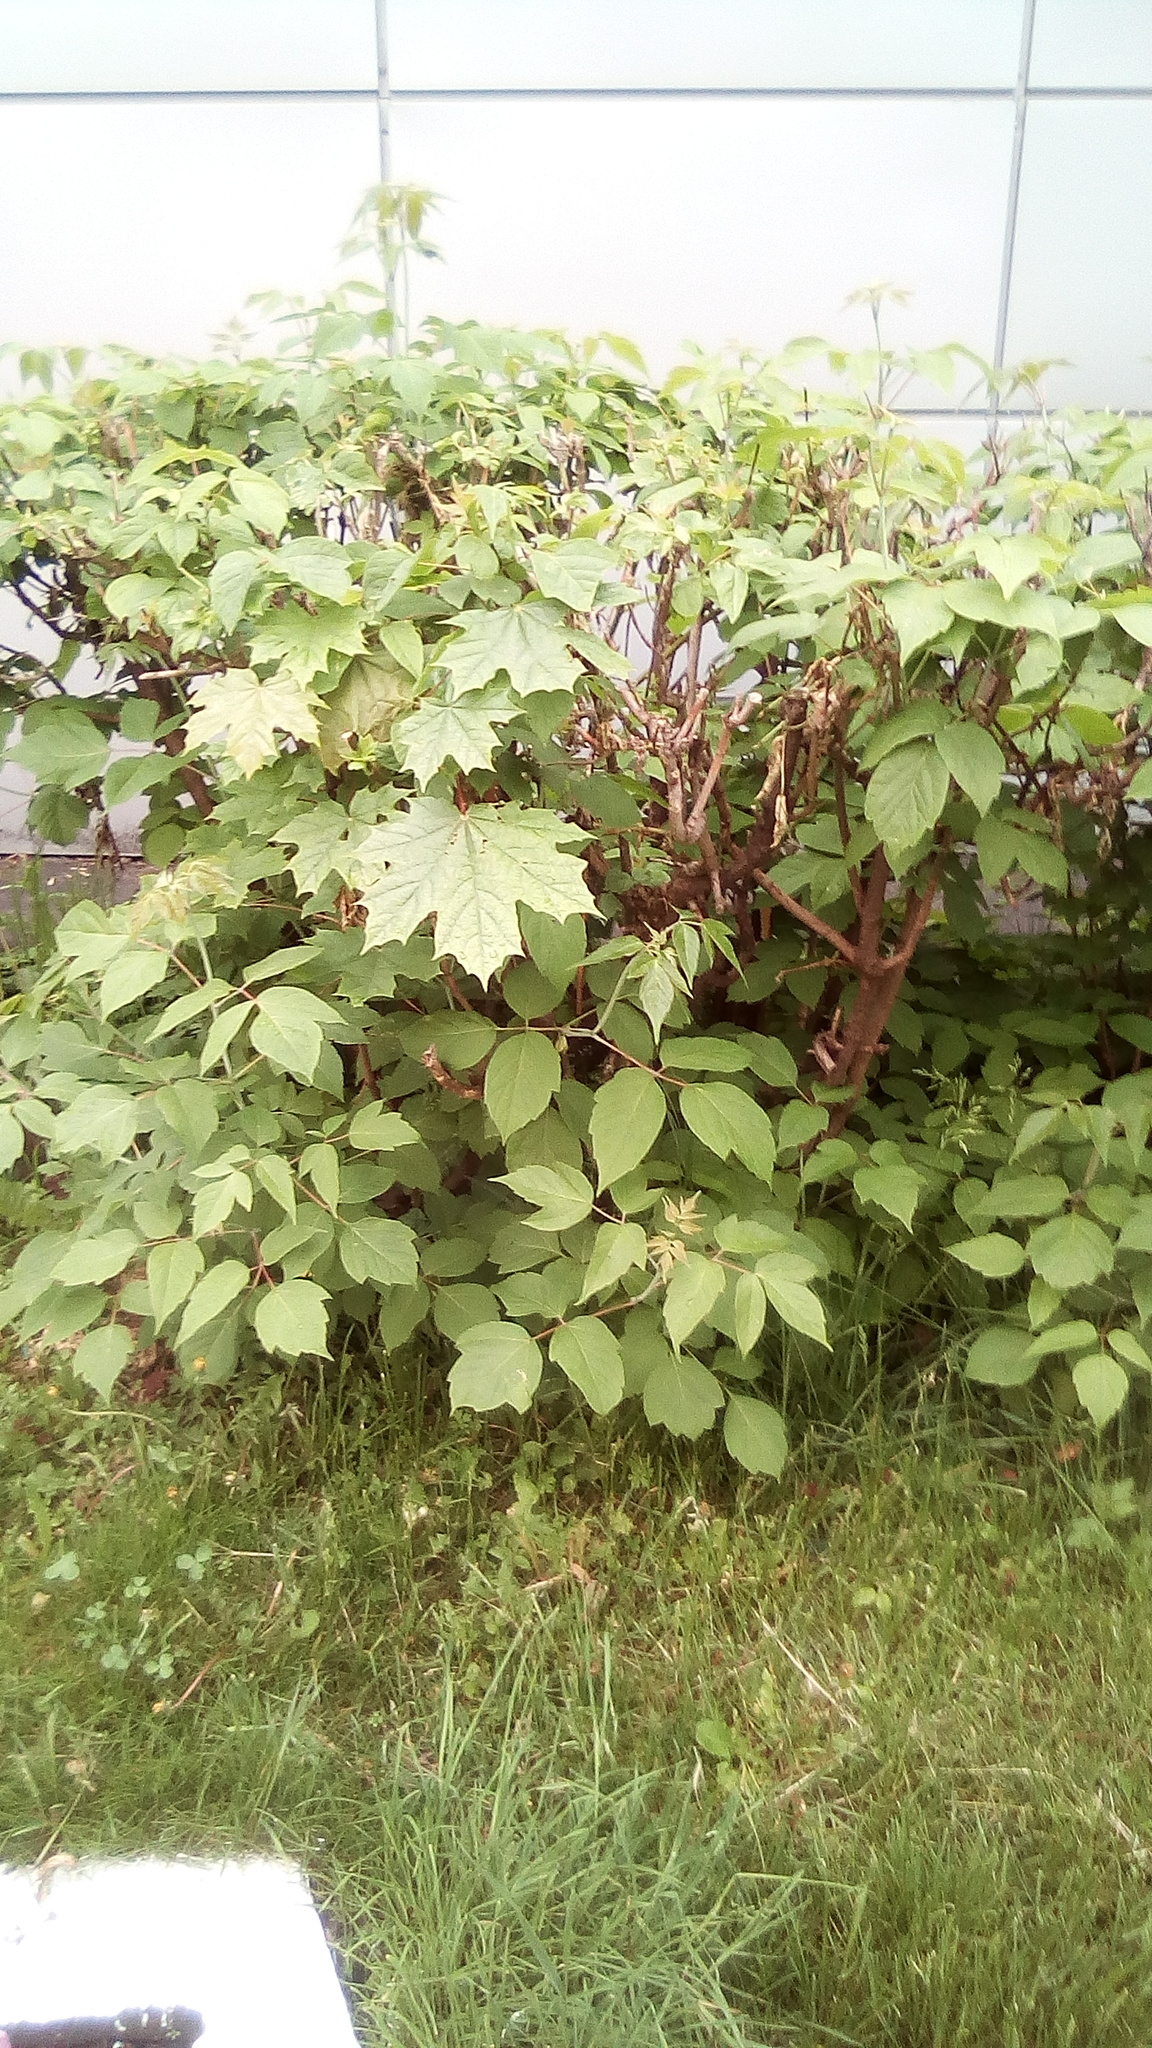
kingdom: Plantae
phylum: Tracheophyta
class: Magnoliopsida
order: Sapindales
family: Sapindaceae
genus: Acer
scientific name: Acer negundo
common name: Ashleaf maple
